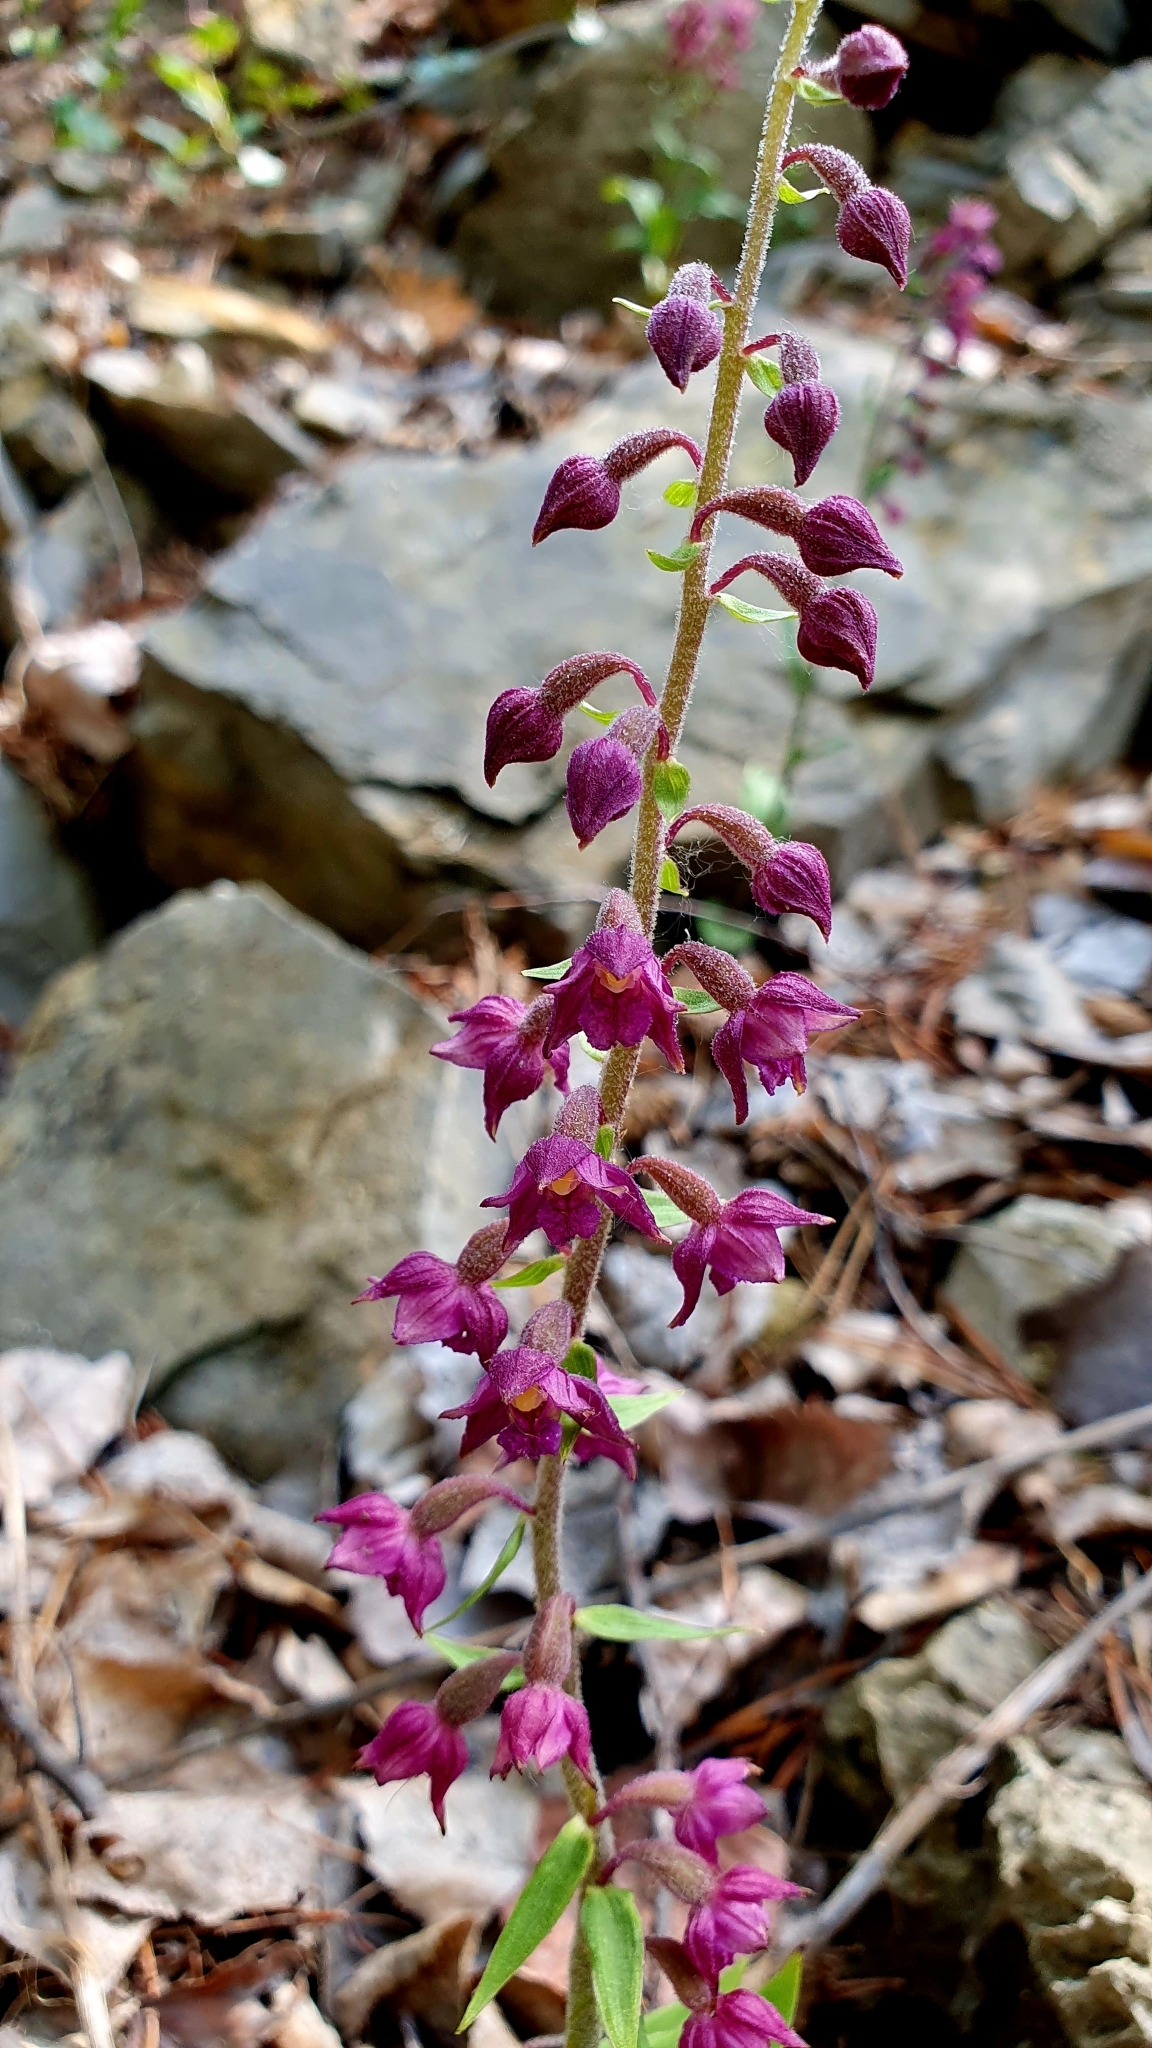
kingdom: Plantae
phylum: Tracheophyta
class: Liliopsida
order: Asparagales
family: Orchidaceae
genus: Epipactis
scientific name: Epipactis atrorubens
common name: Dark-red helleborine
